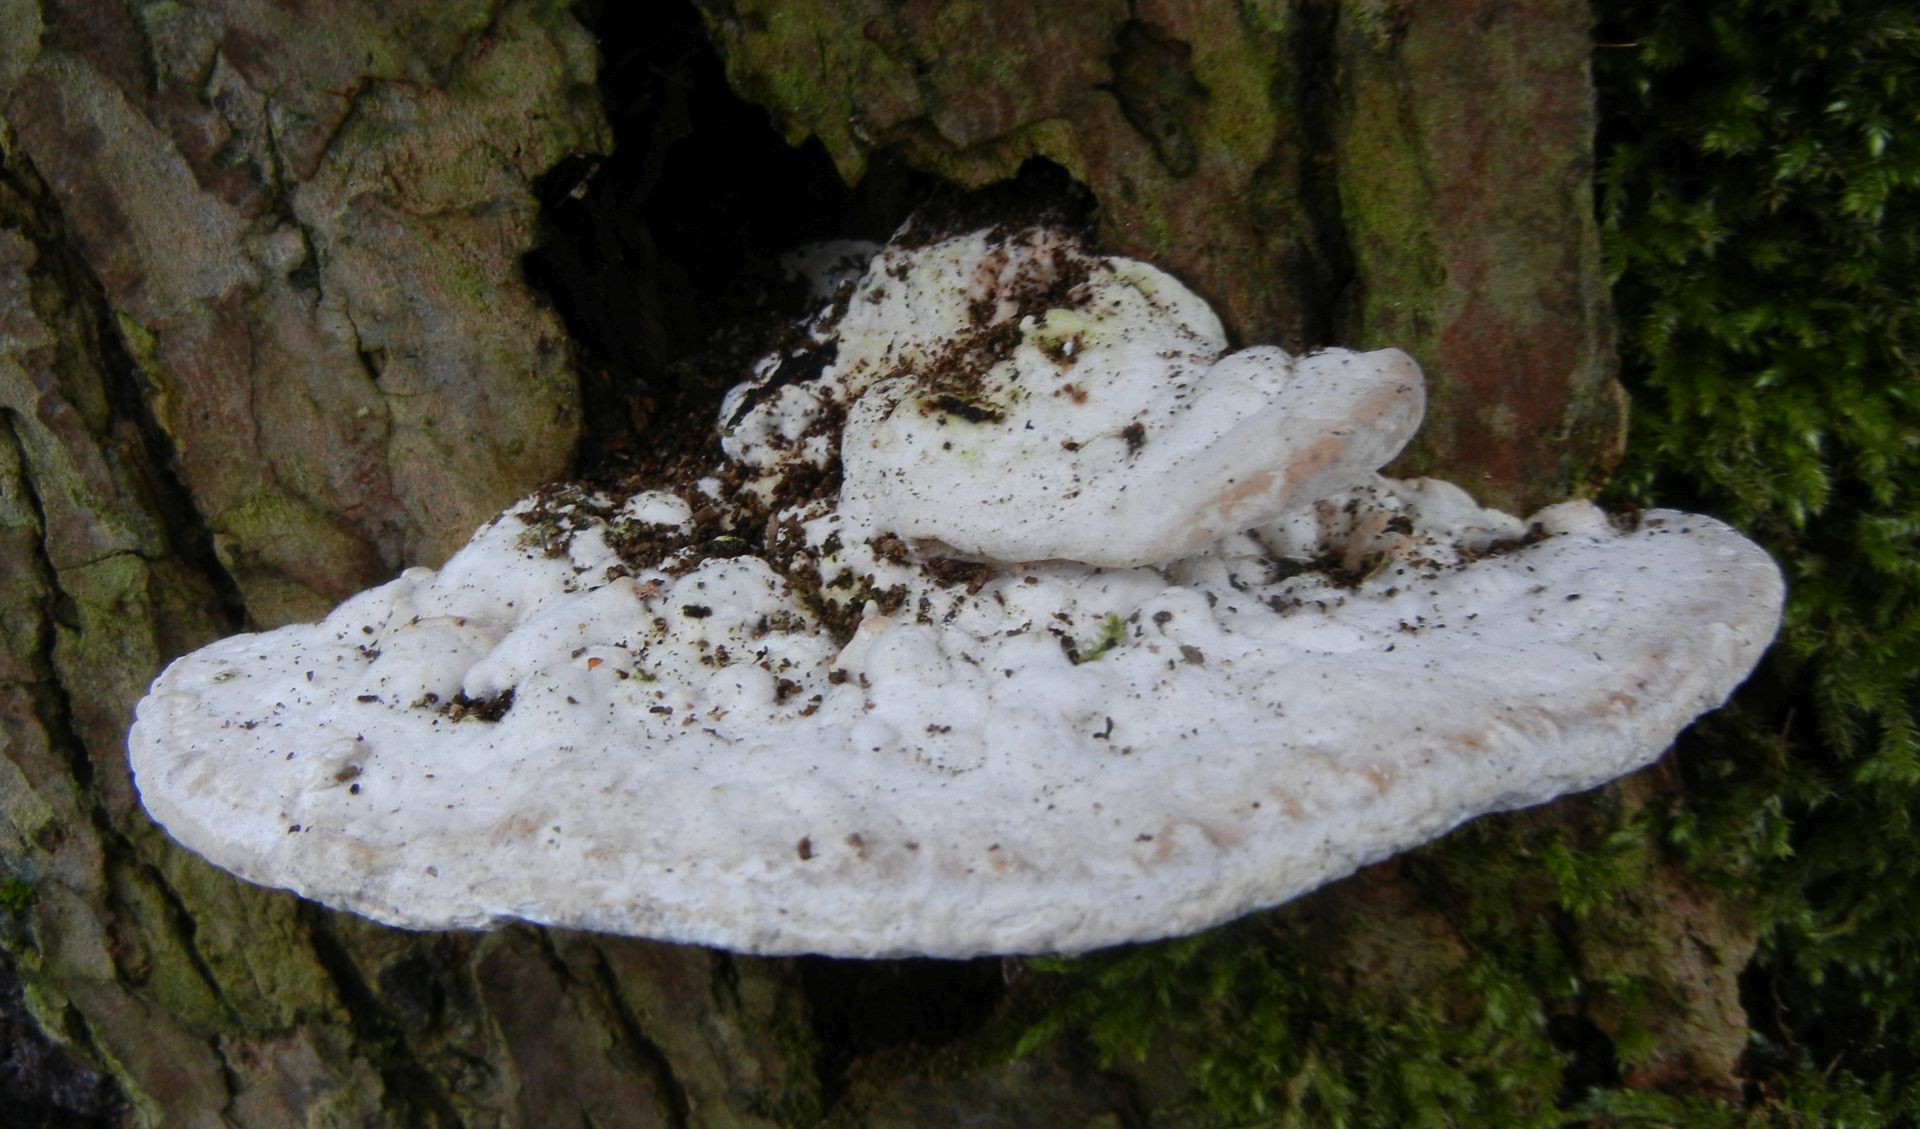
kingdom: Fungi
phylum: Basidiomycota
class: Agaricomycetes
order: Polyporales
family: Polyporaceae
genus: Trametes
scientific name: Trametes gibbosa
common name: Lumpy bracket
